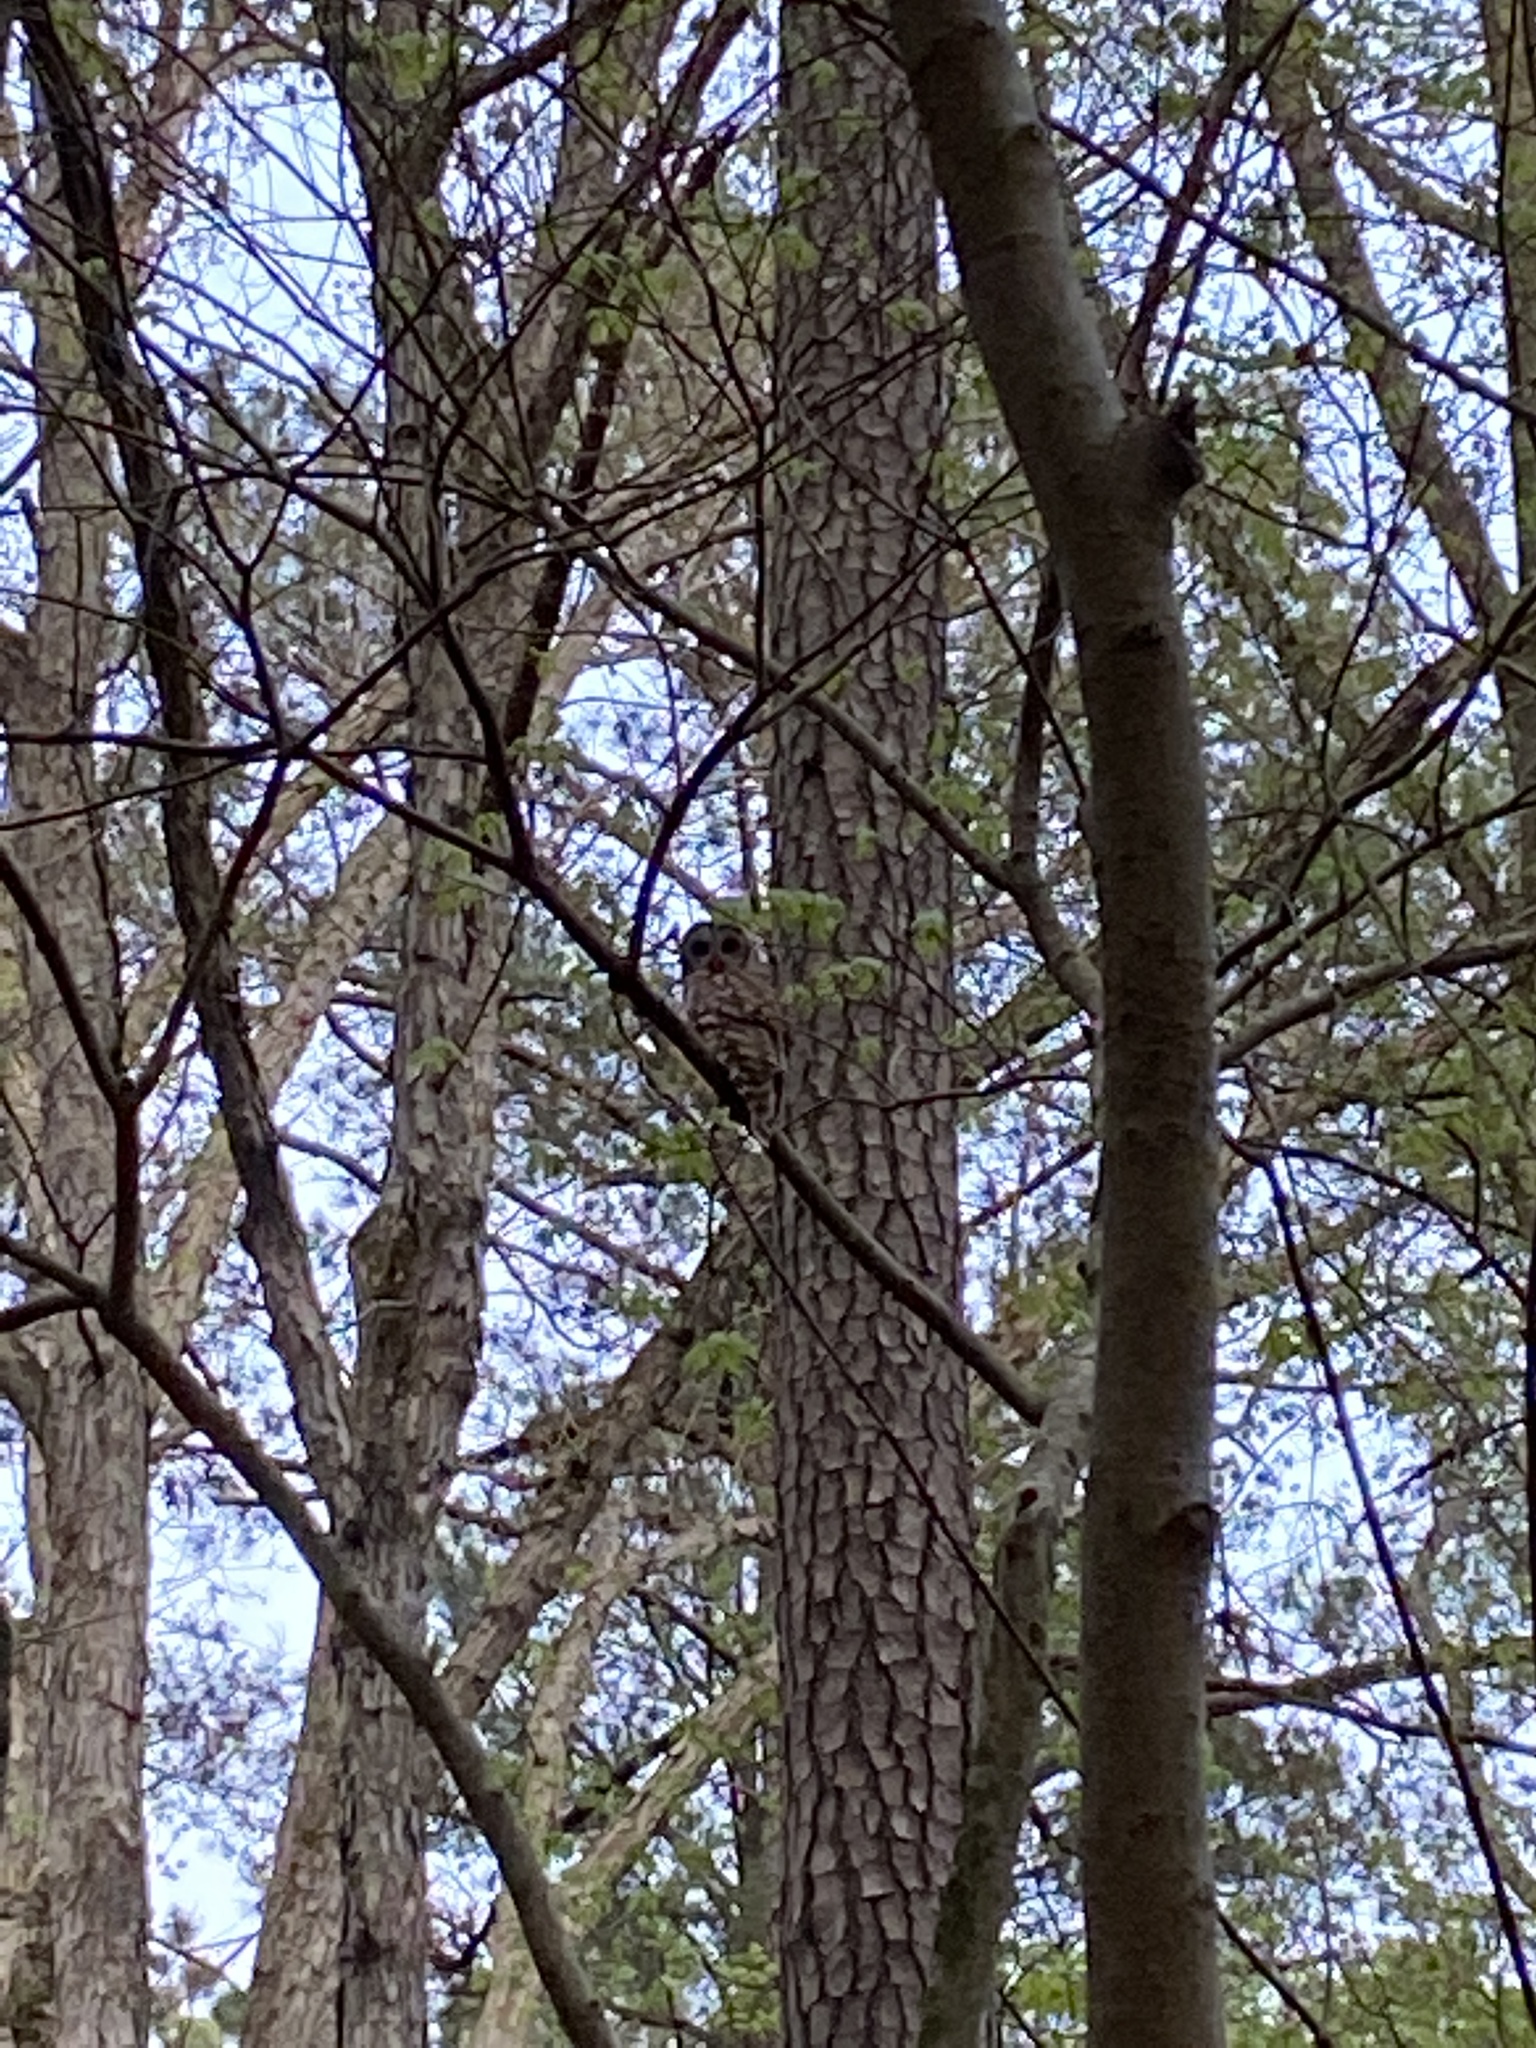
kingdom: Animalia
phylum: Chordata
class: Aves
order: Strigiformes
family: Strigidae
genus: Strix
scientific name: Strix varia
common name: Barred owl
